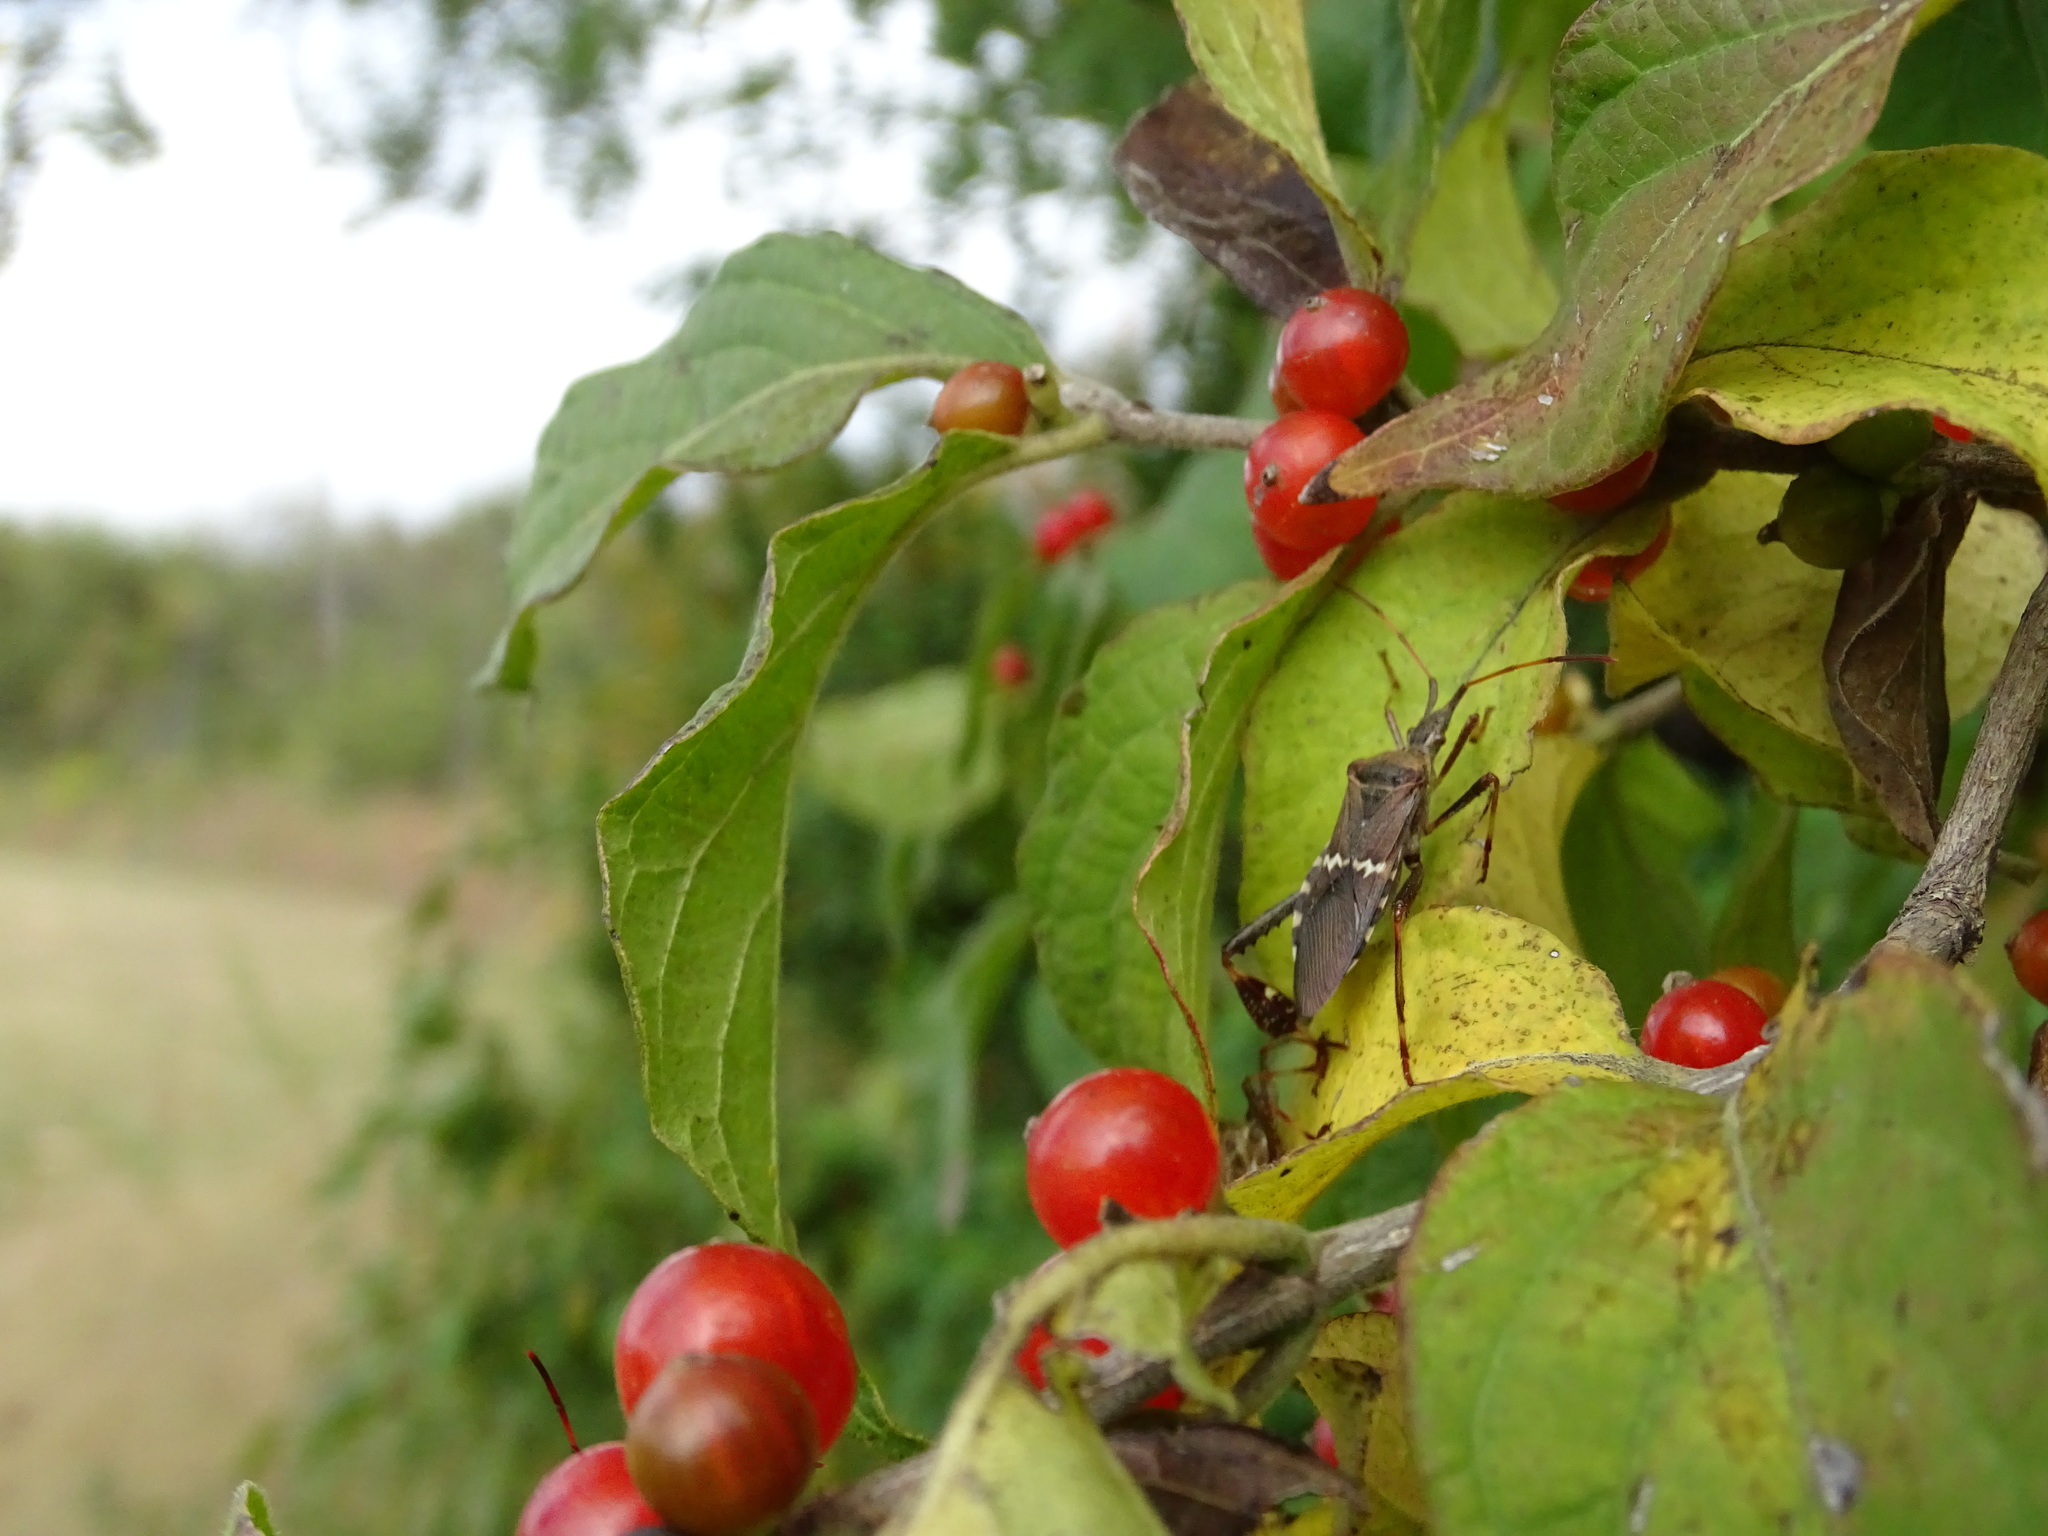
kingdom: Animalia
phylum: Arthropoda
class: Insecta
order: Hemiptera
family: Coreidae
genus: Leptoglossus
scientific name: Leptoglossus clypealis
